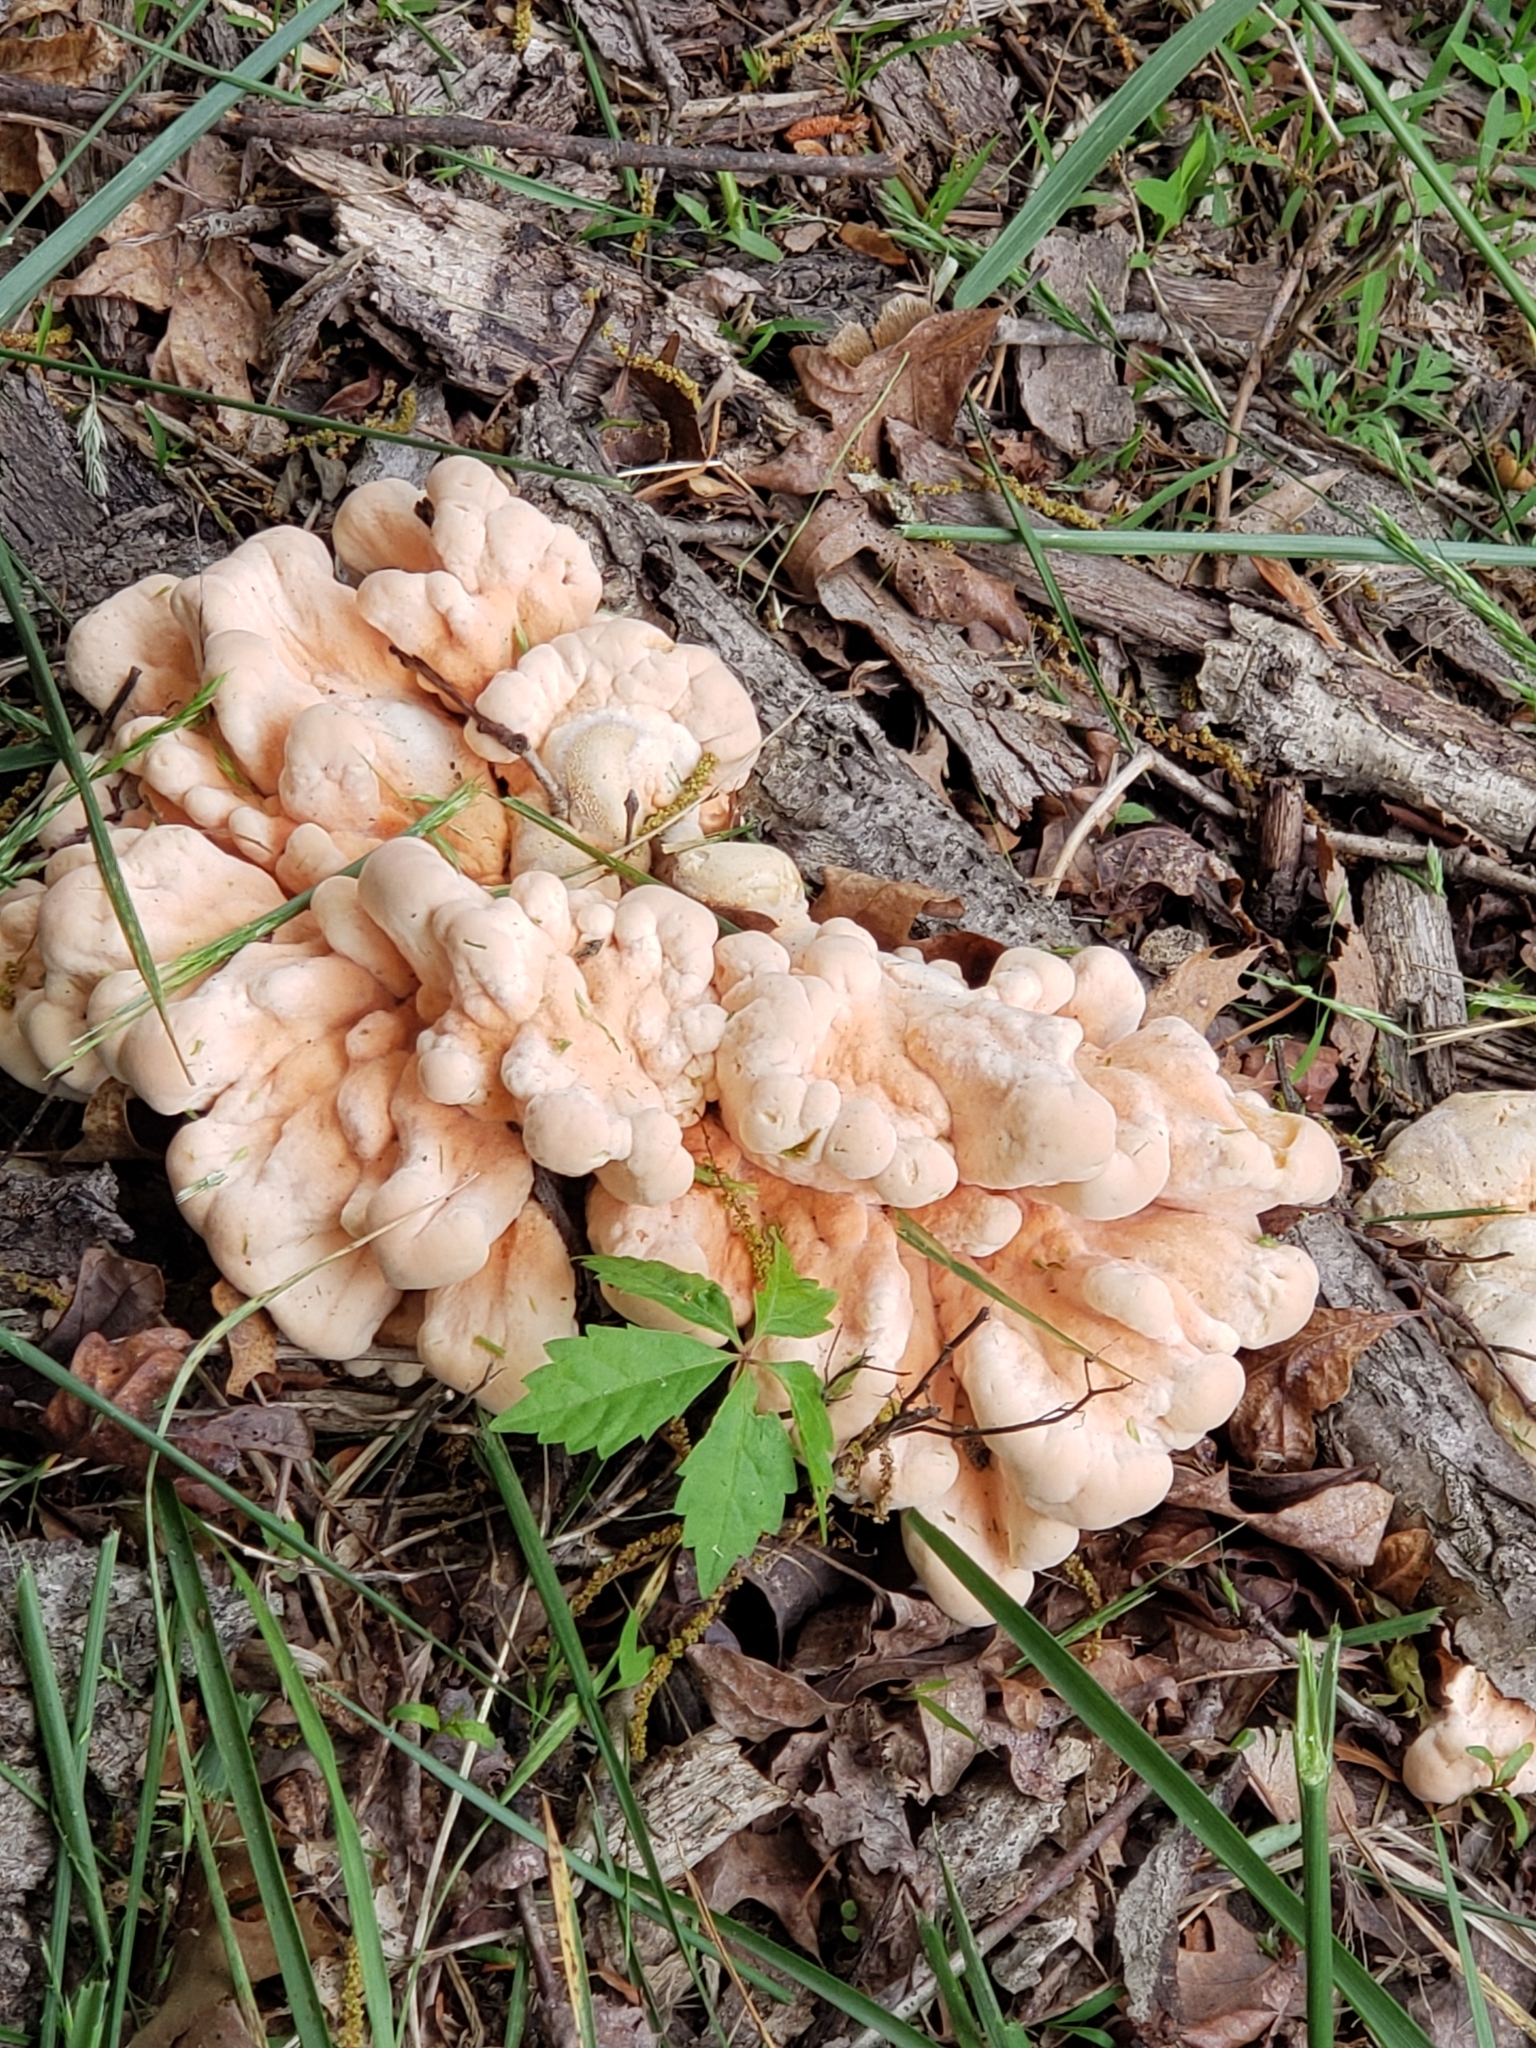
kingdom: Fungi
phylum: Basidiomycota
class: Agaricomycetes
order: Polyporales
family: Laetiporaceae
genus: Laetiporus
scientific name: Laetiporus sulphureus
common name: Chicken of the woods
